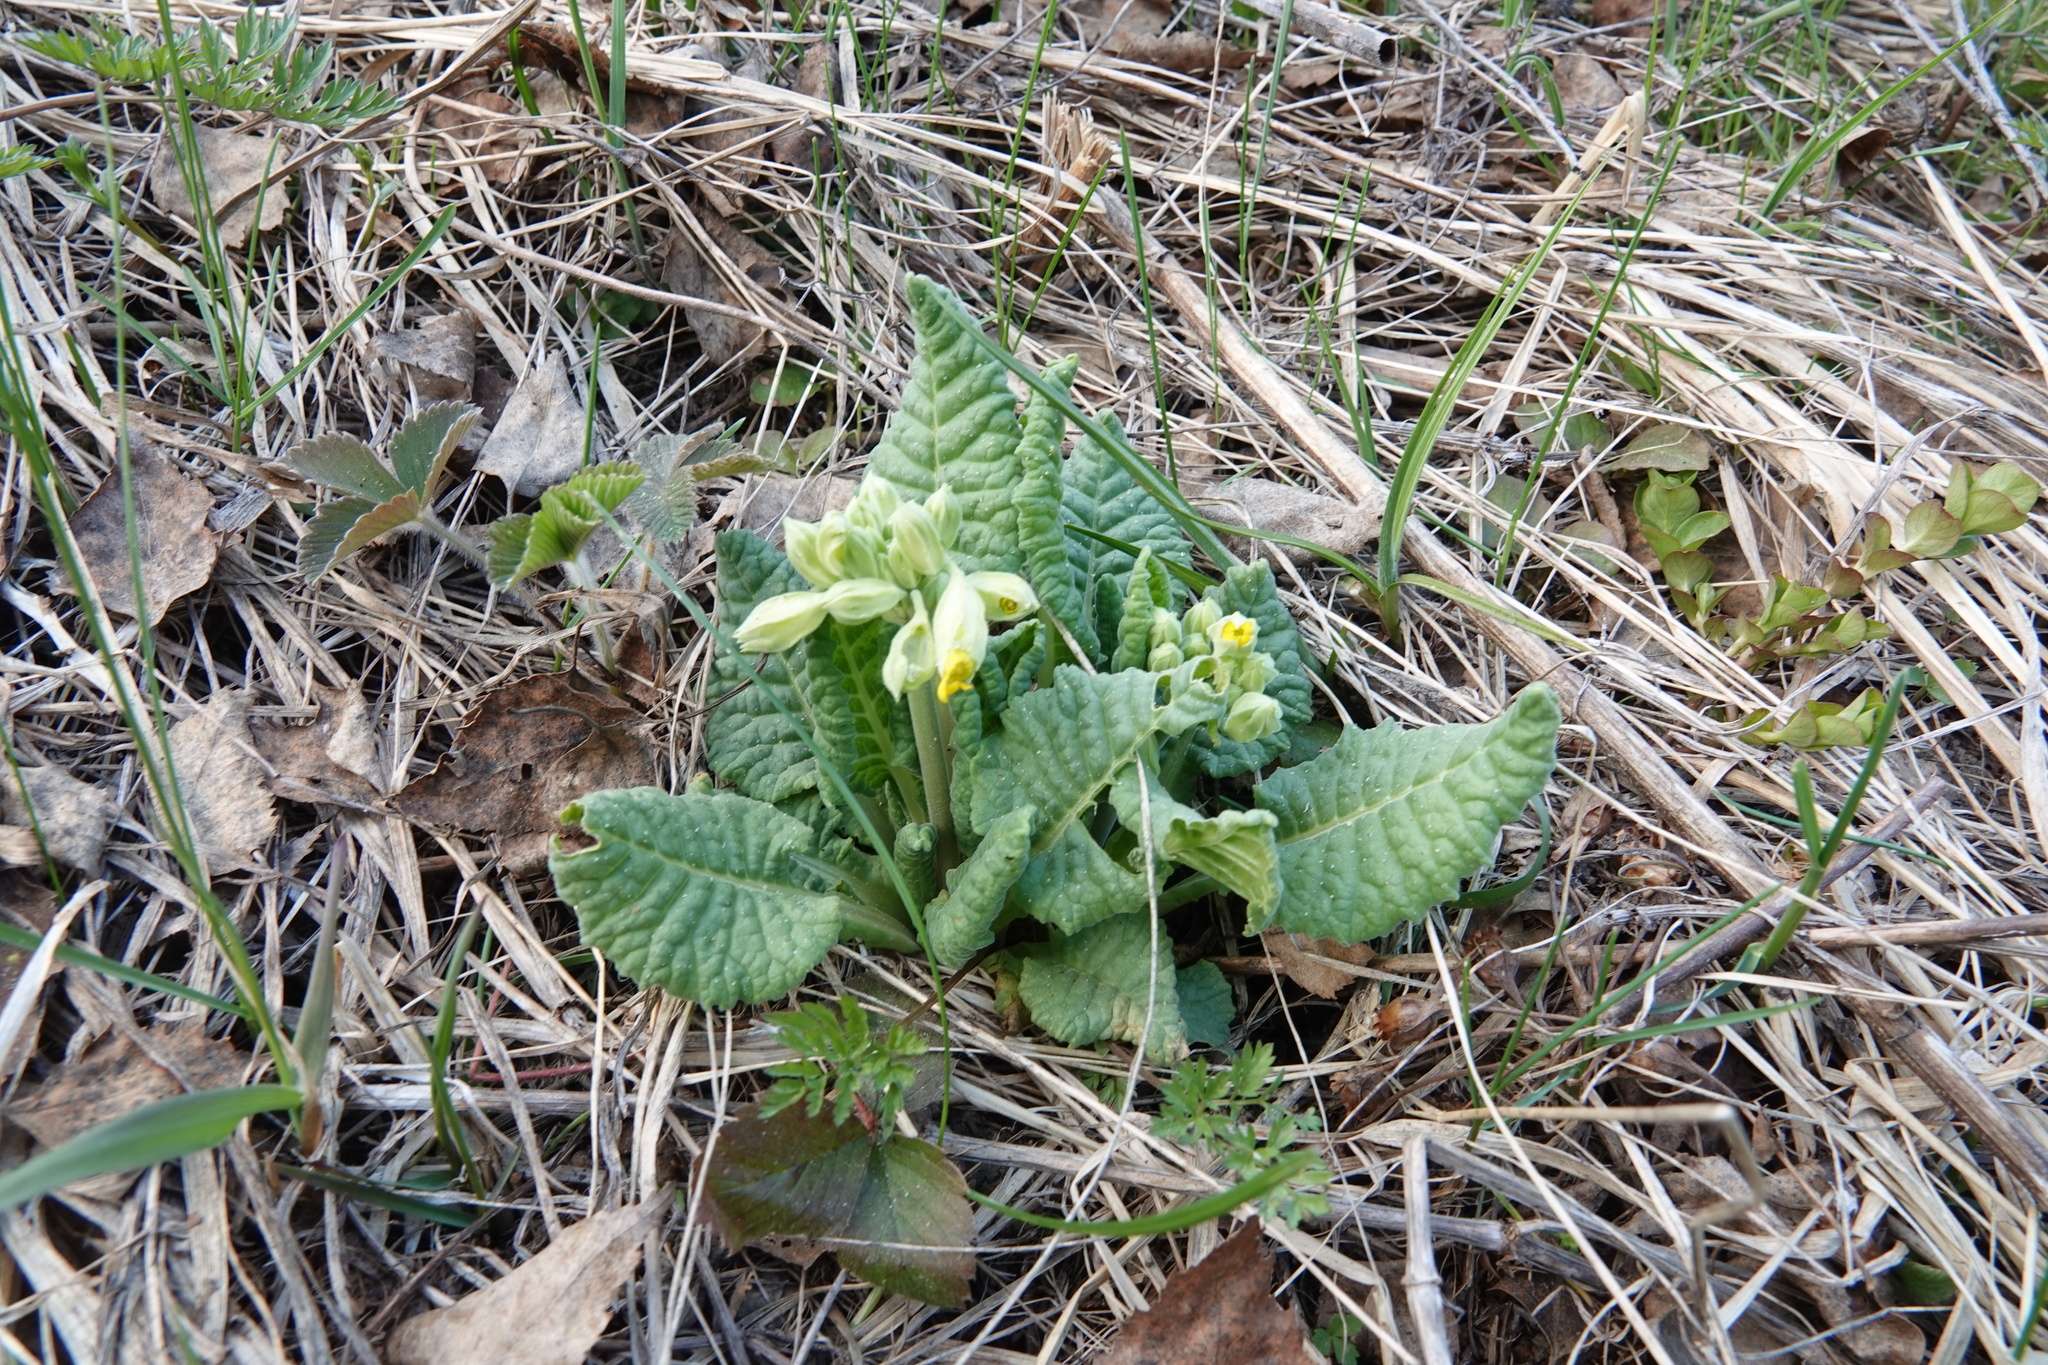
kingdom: Plantae
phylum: Tracheophyta
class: Magnoliopsida
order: Ericales
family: Primulaceae
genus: Primula
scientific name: Primula veris
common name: Cowslip
